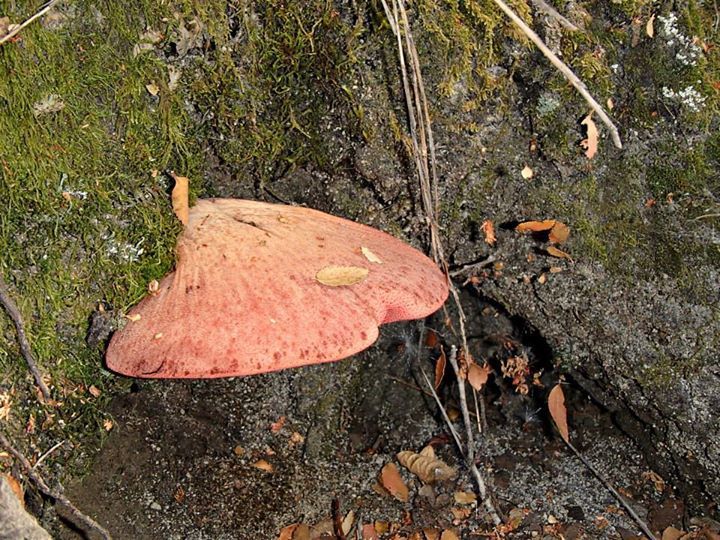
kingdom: Fungi
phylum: Basidiomycota
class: Agaricomycetes
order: Agaricales
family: Fistulinaceae
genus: Fistulina
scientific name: Fistulina antarctica
